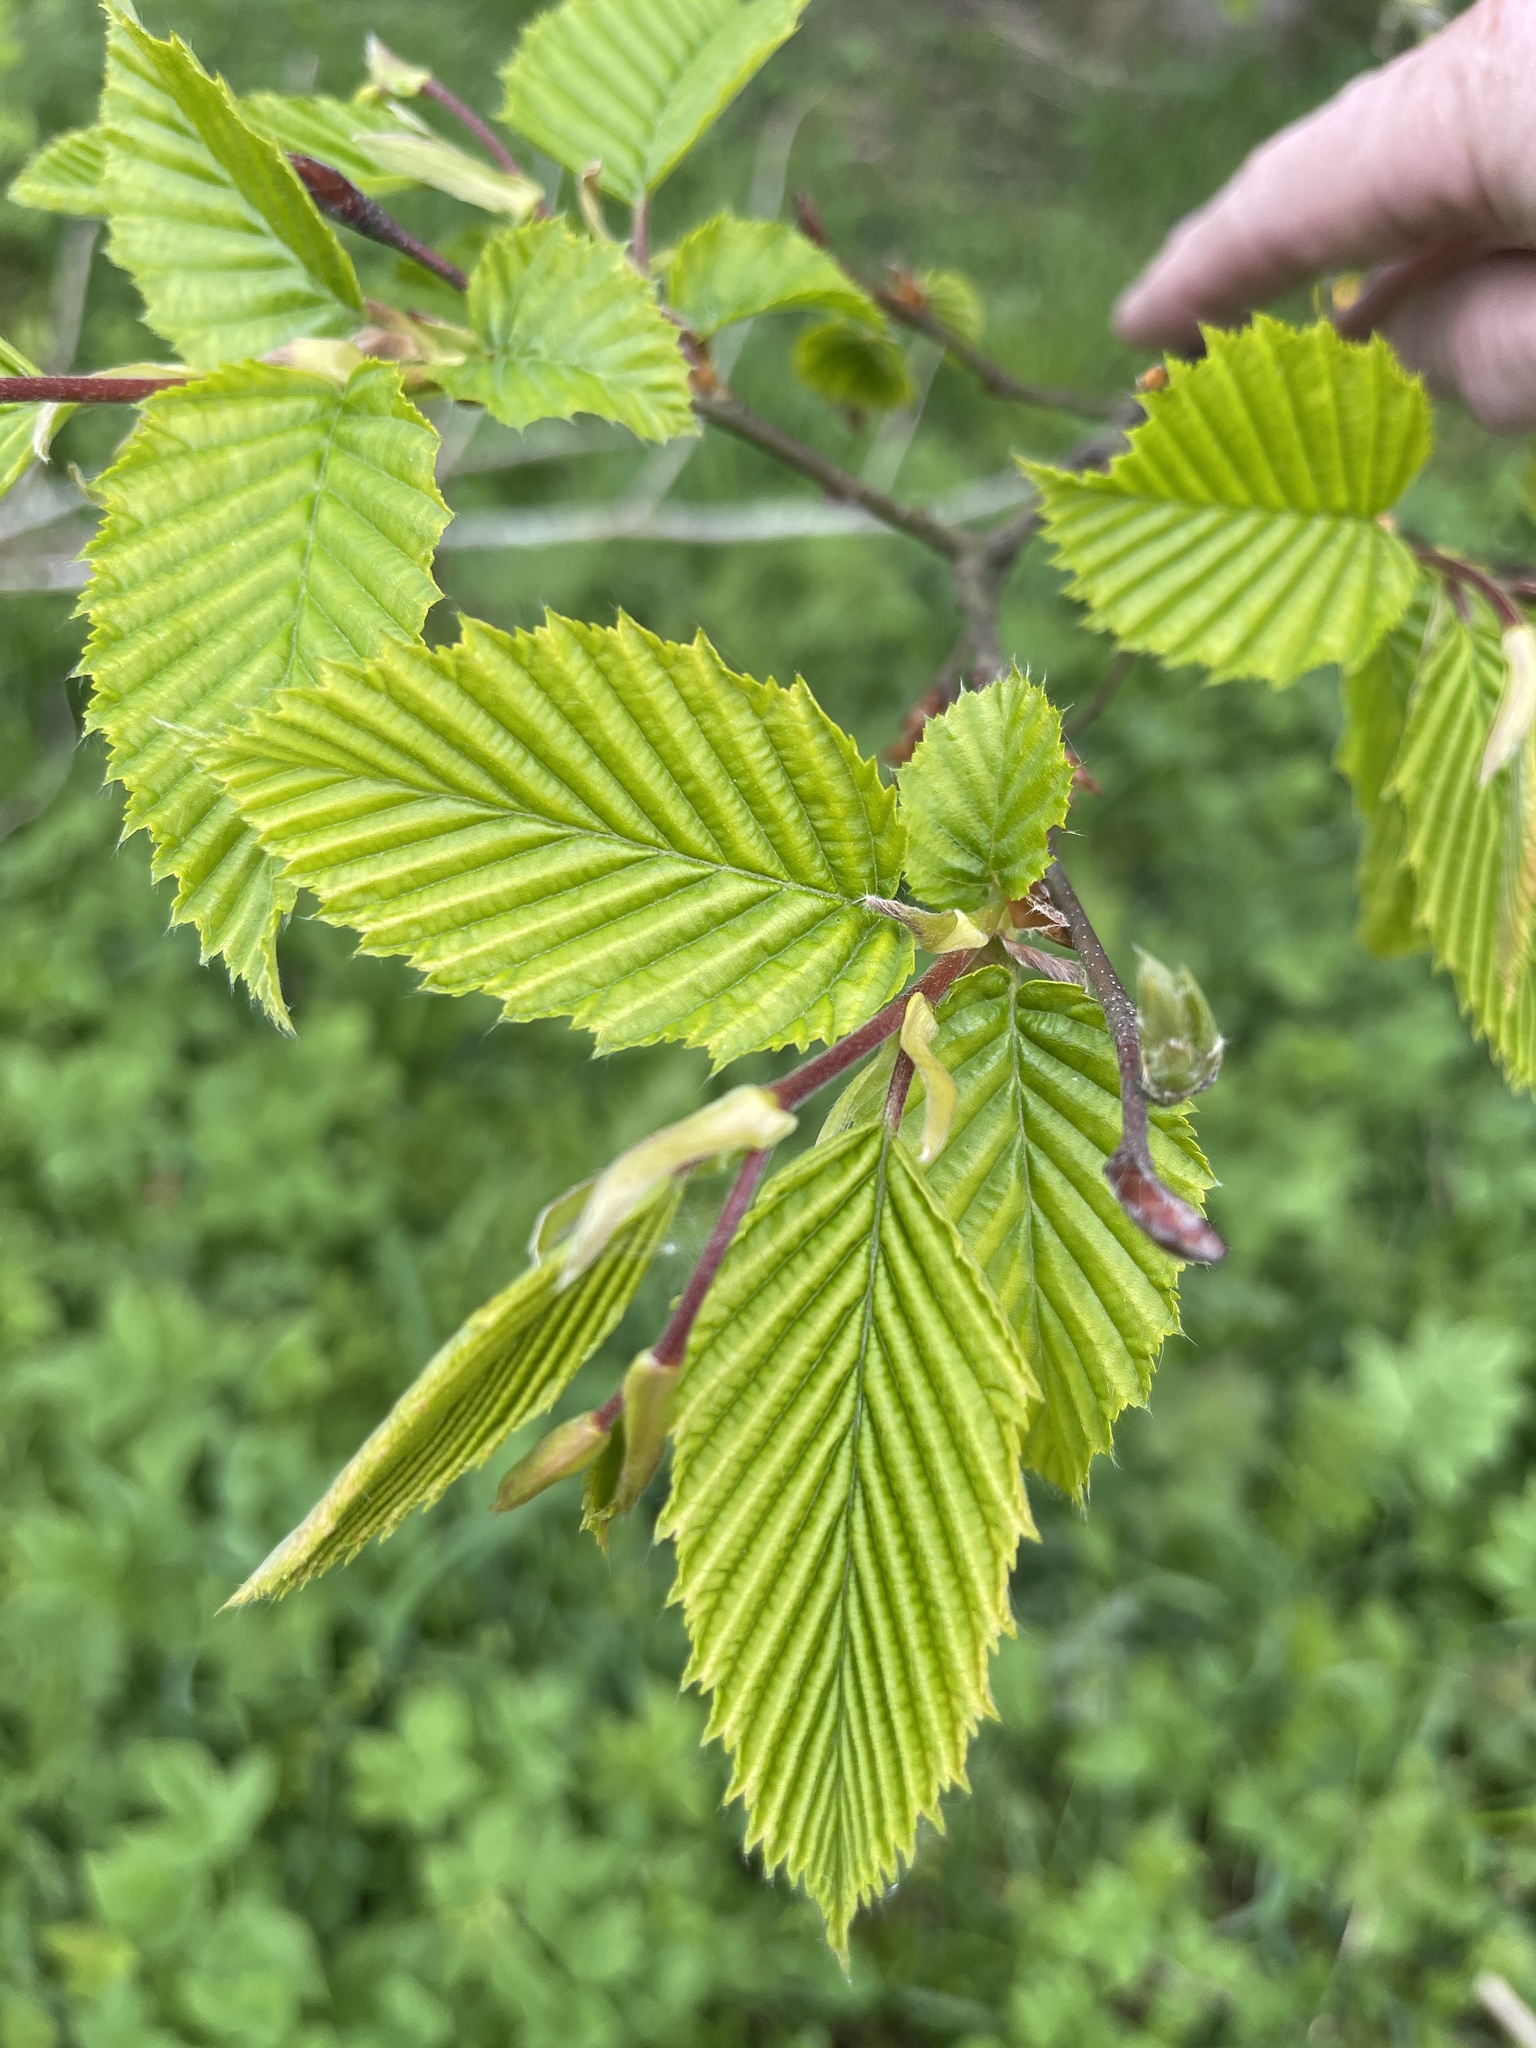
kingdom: Plantae
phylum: Tracheophyta
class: Magnoliopsida
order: Fagales
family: Betulaceae
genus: Carpinus
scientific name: Carpinus betulus
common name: Hornbeam
